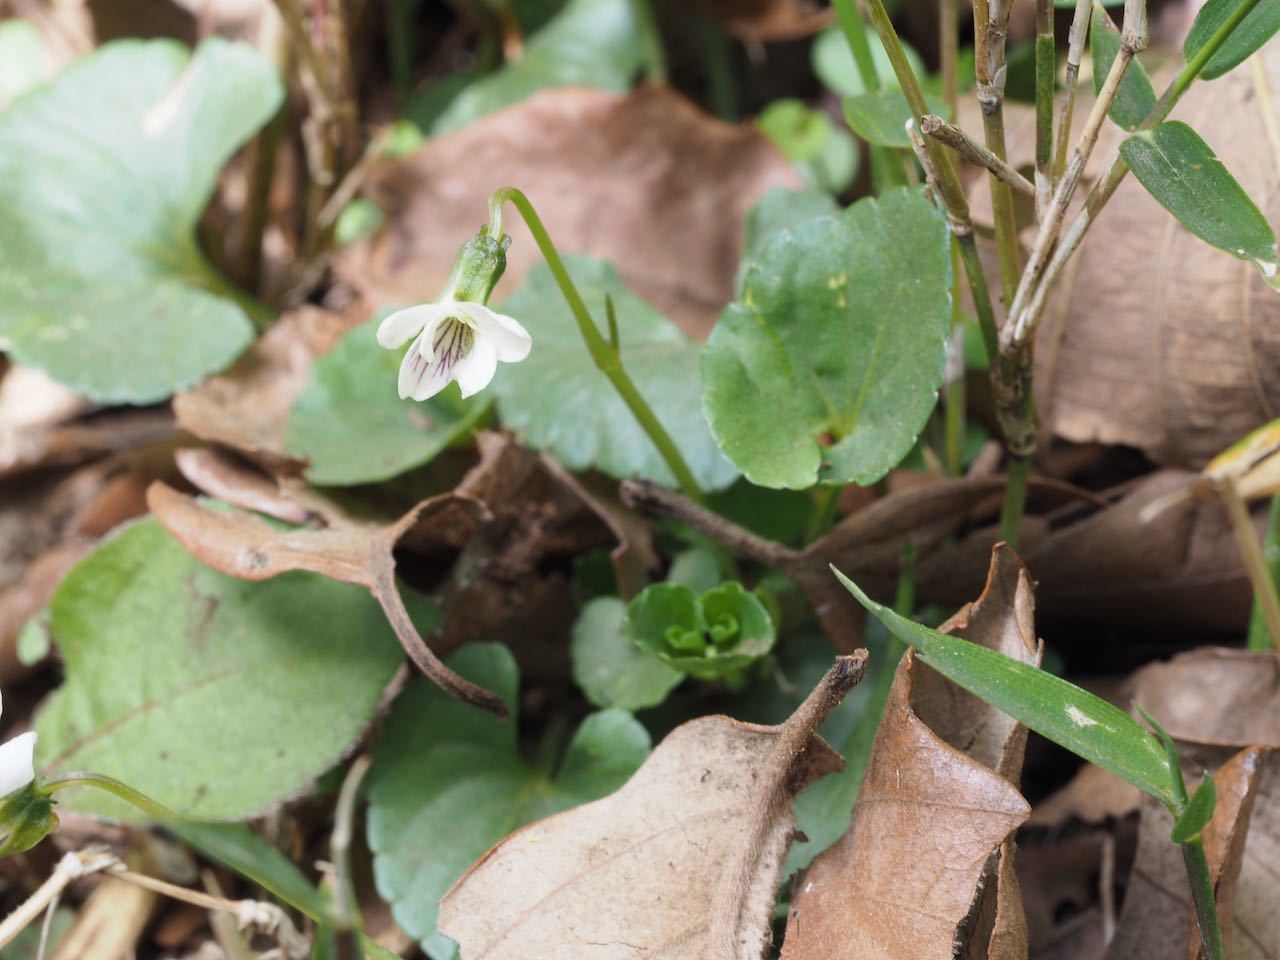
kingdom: Plantae
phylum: Tracheophyta
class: Magnoliopsida
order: Malpighiales
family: Violaceae
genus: Viola
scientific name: Viola
